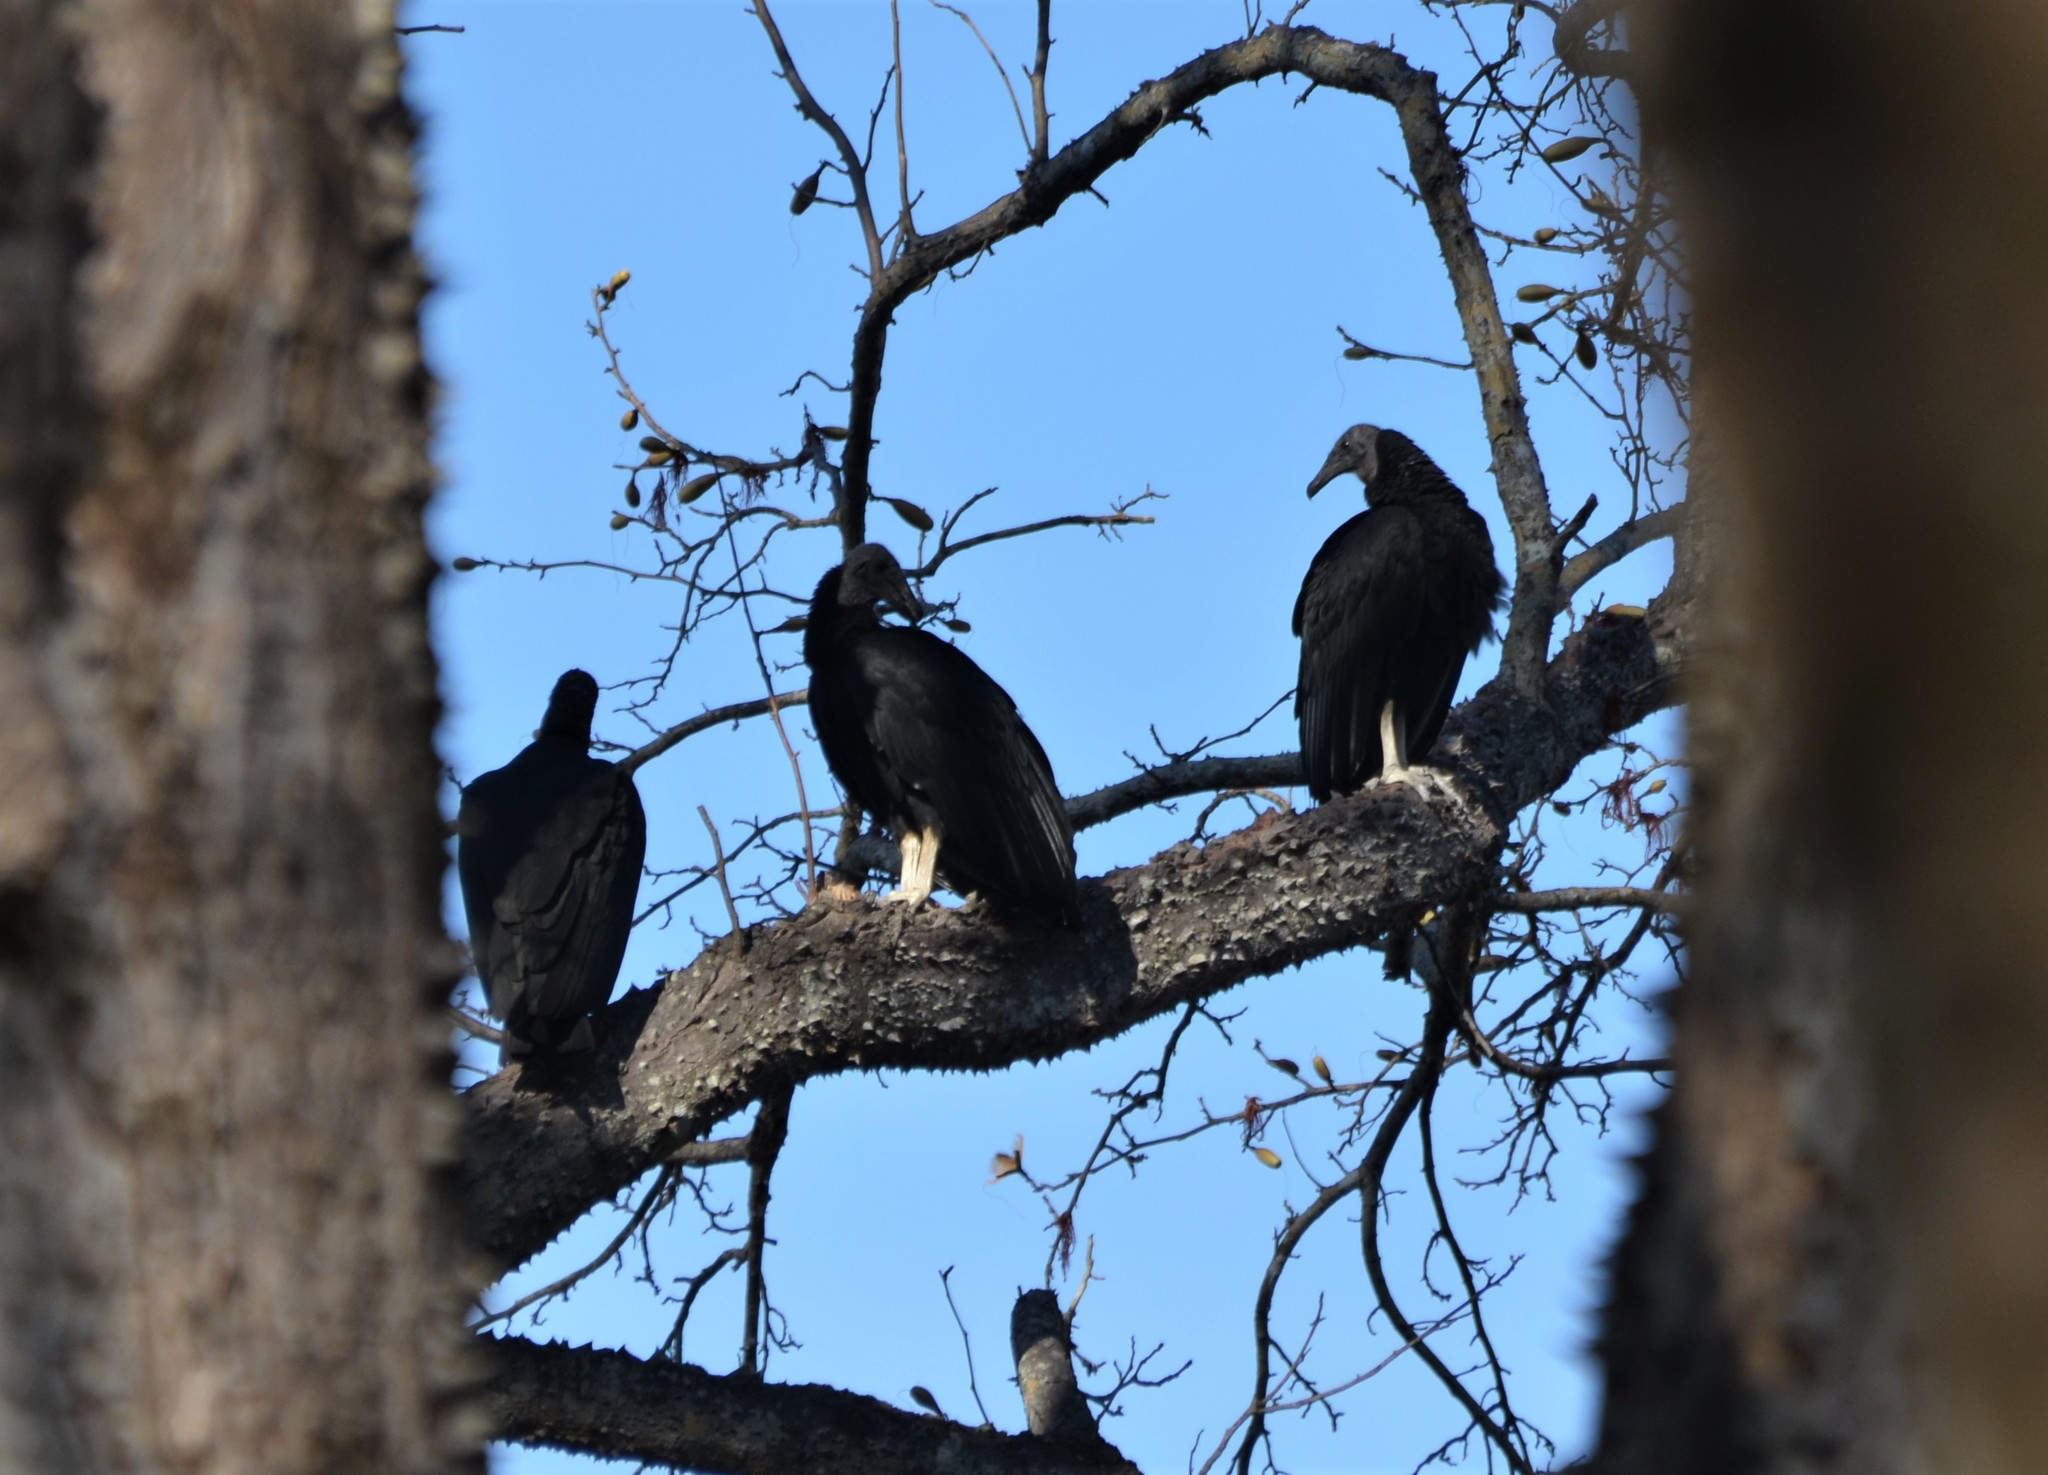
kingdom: Animalia
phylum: Chordata
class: Aves
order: Accipitriformes
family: Cathartidae
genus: Coragyps
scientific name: Coragyps atratus
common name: Black vulture
